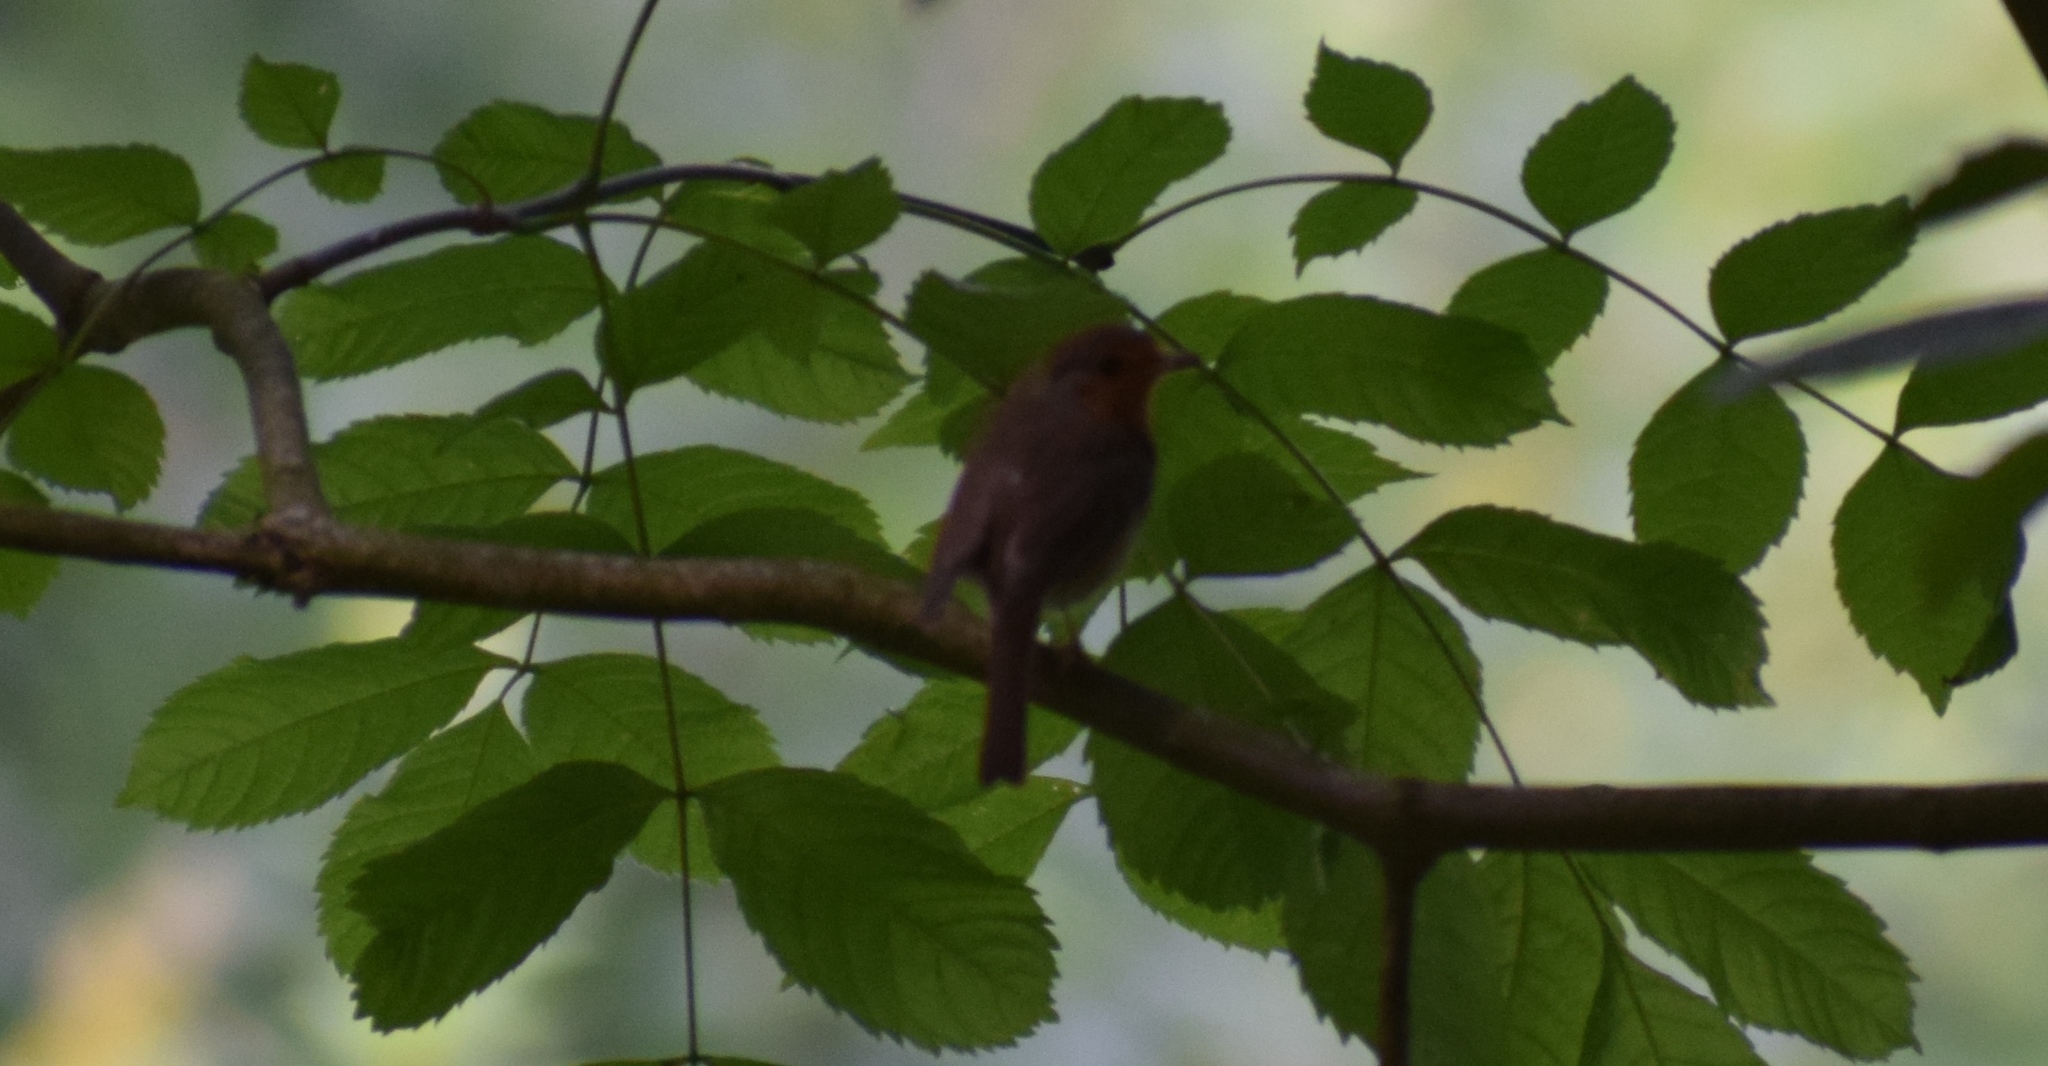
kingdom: Animalia
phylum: Chordata
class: Aves
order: Passeriformes
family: Muscicapidae
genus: Erithacus
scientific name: Erithacus rubecula
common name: European robin
